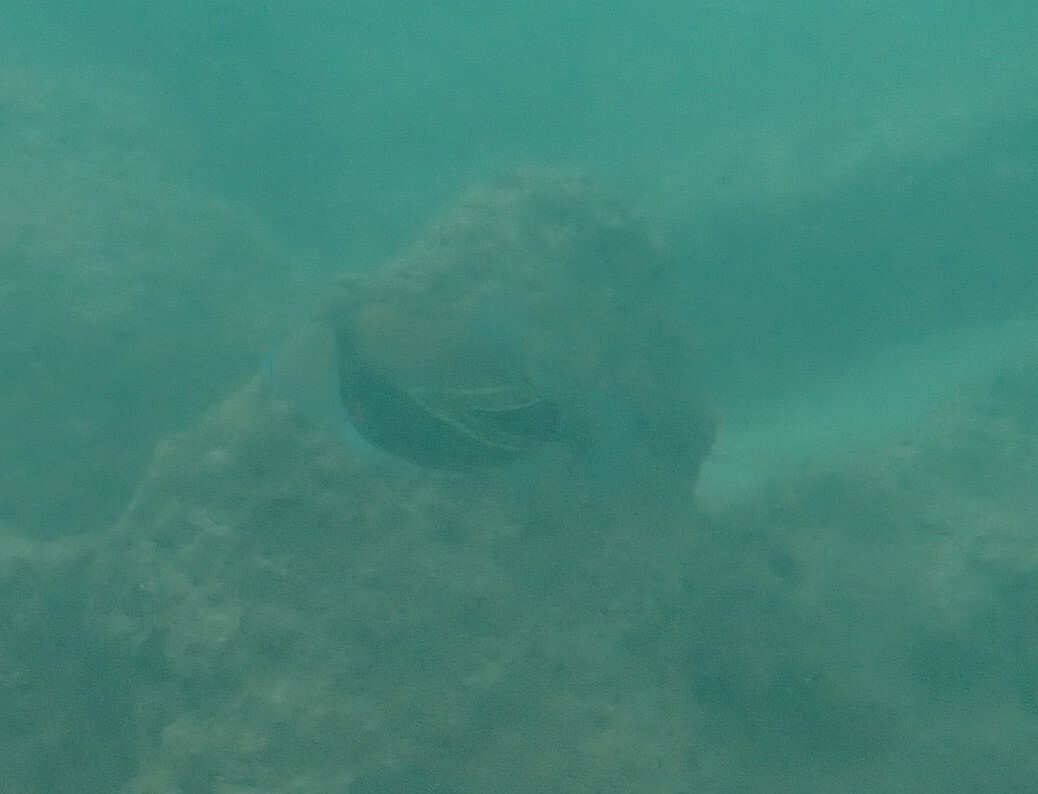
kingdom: Animalia
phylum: Chordata
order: Tetraodontiformes
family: Balistidae
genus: Rhinecanthus
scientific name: Rhinecanthus rectangulus
